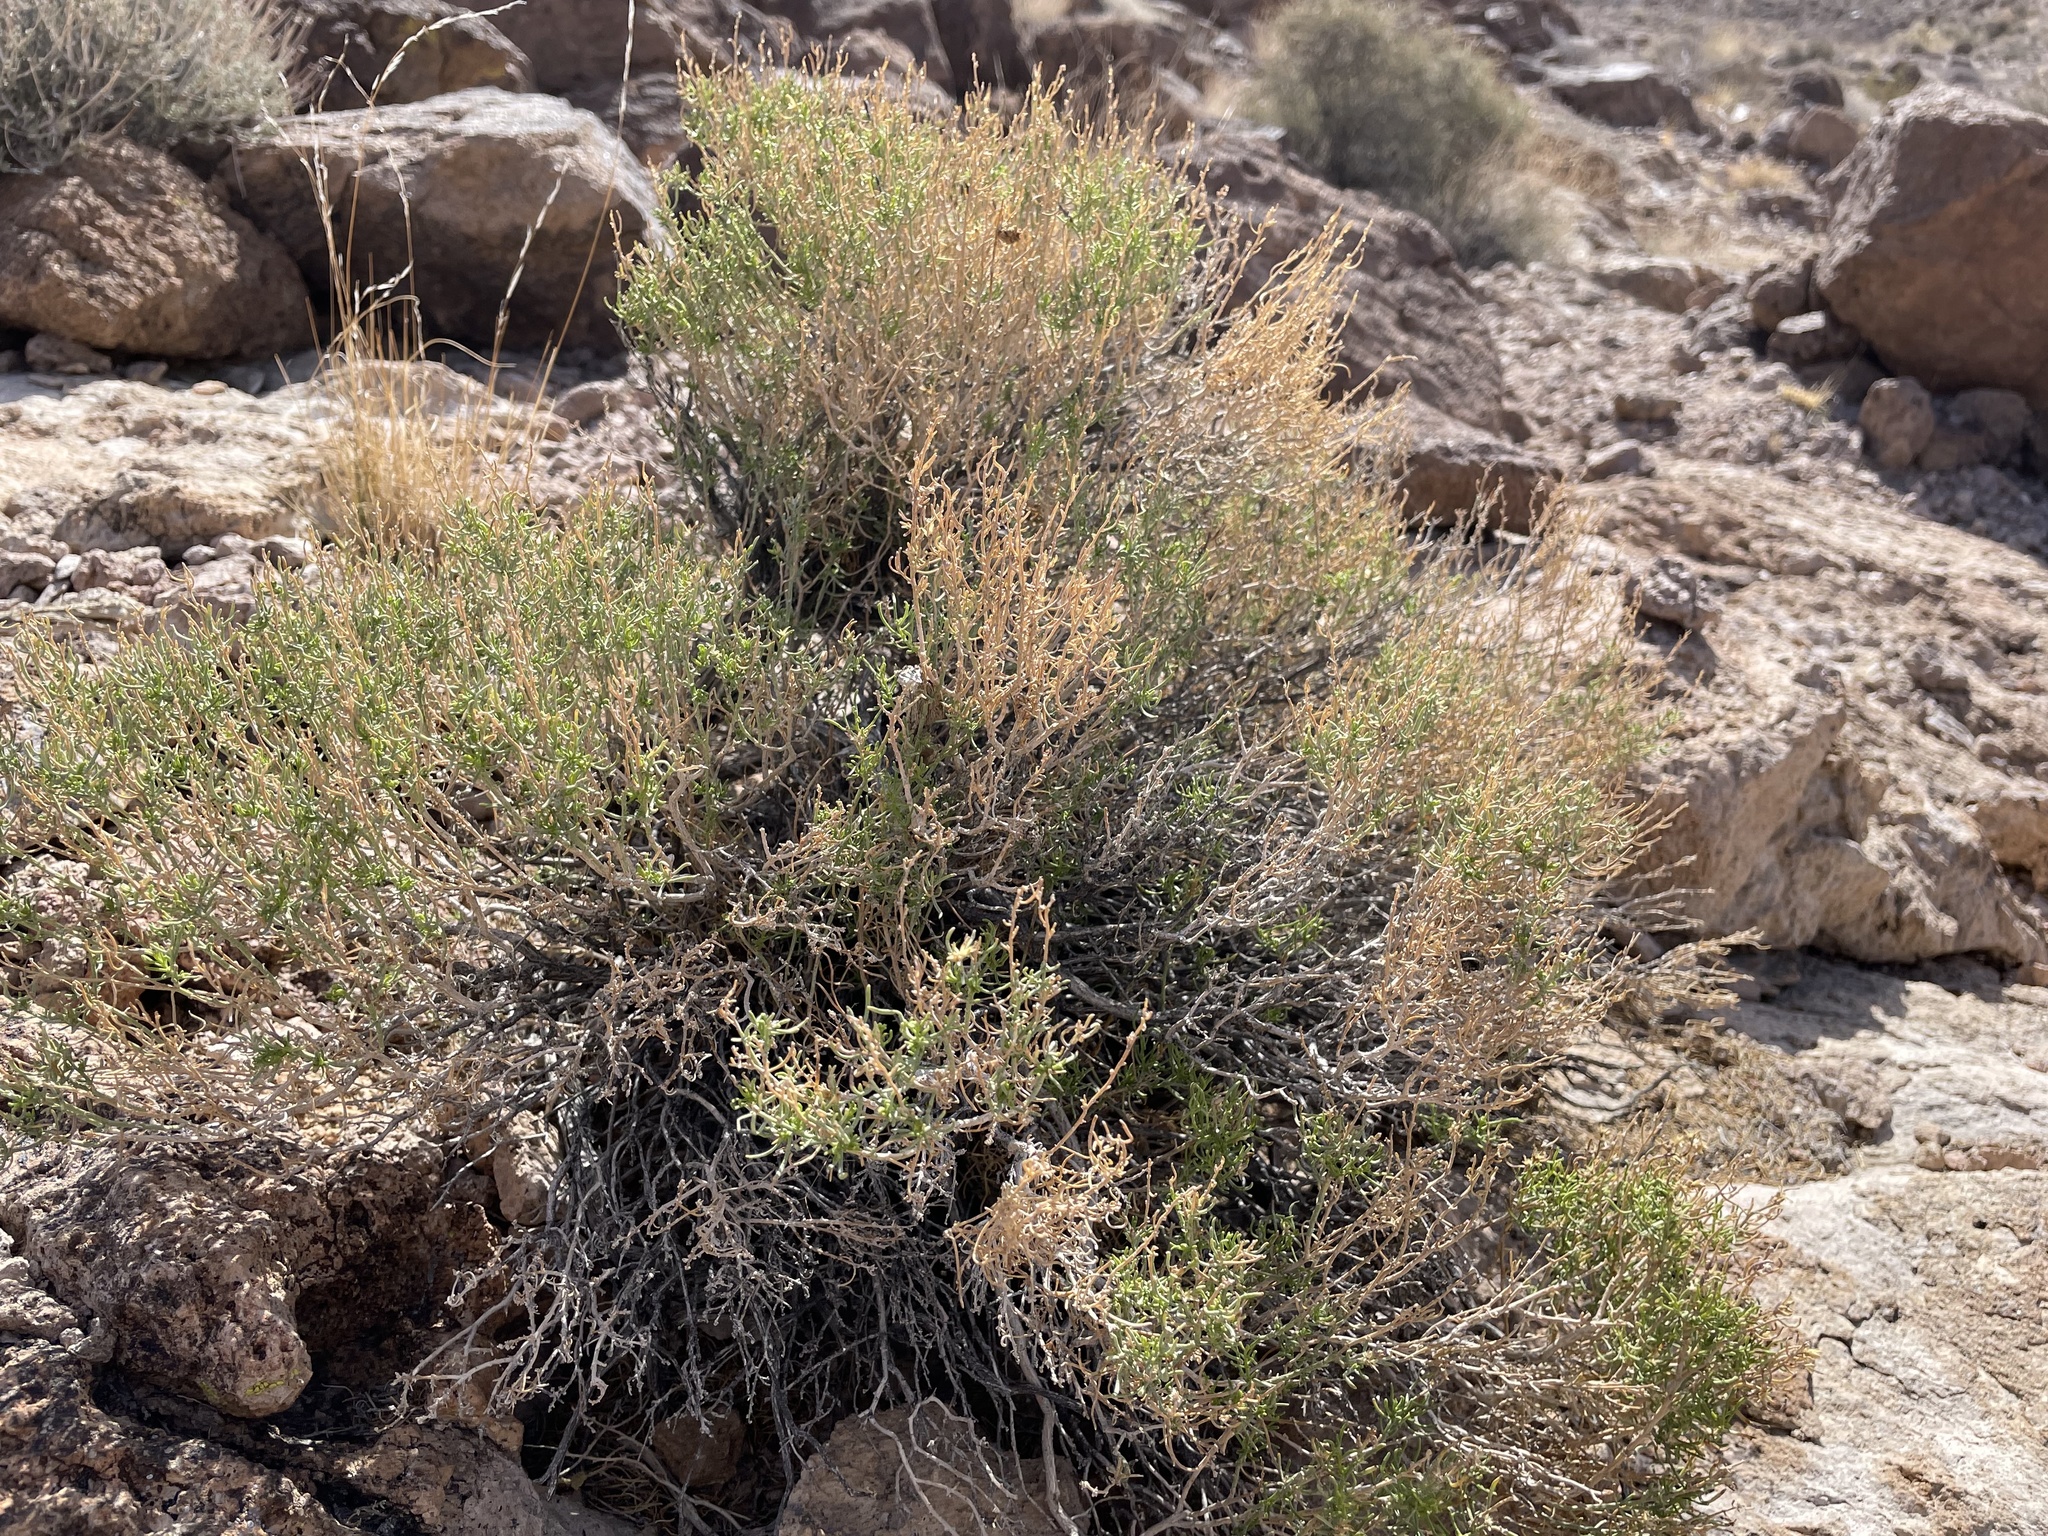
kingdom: Plantae
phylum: Tracheophyta
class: Magnoliopsida
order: Asterales
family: Asteraceae
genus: Ericameria
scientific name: Ericameria linearifolia
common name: Interior goldenbush
